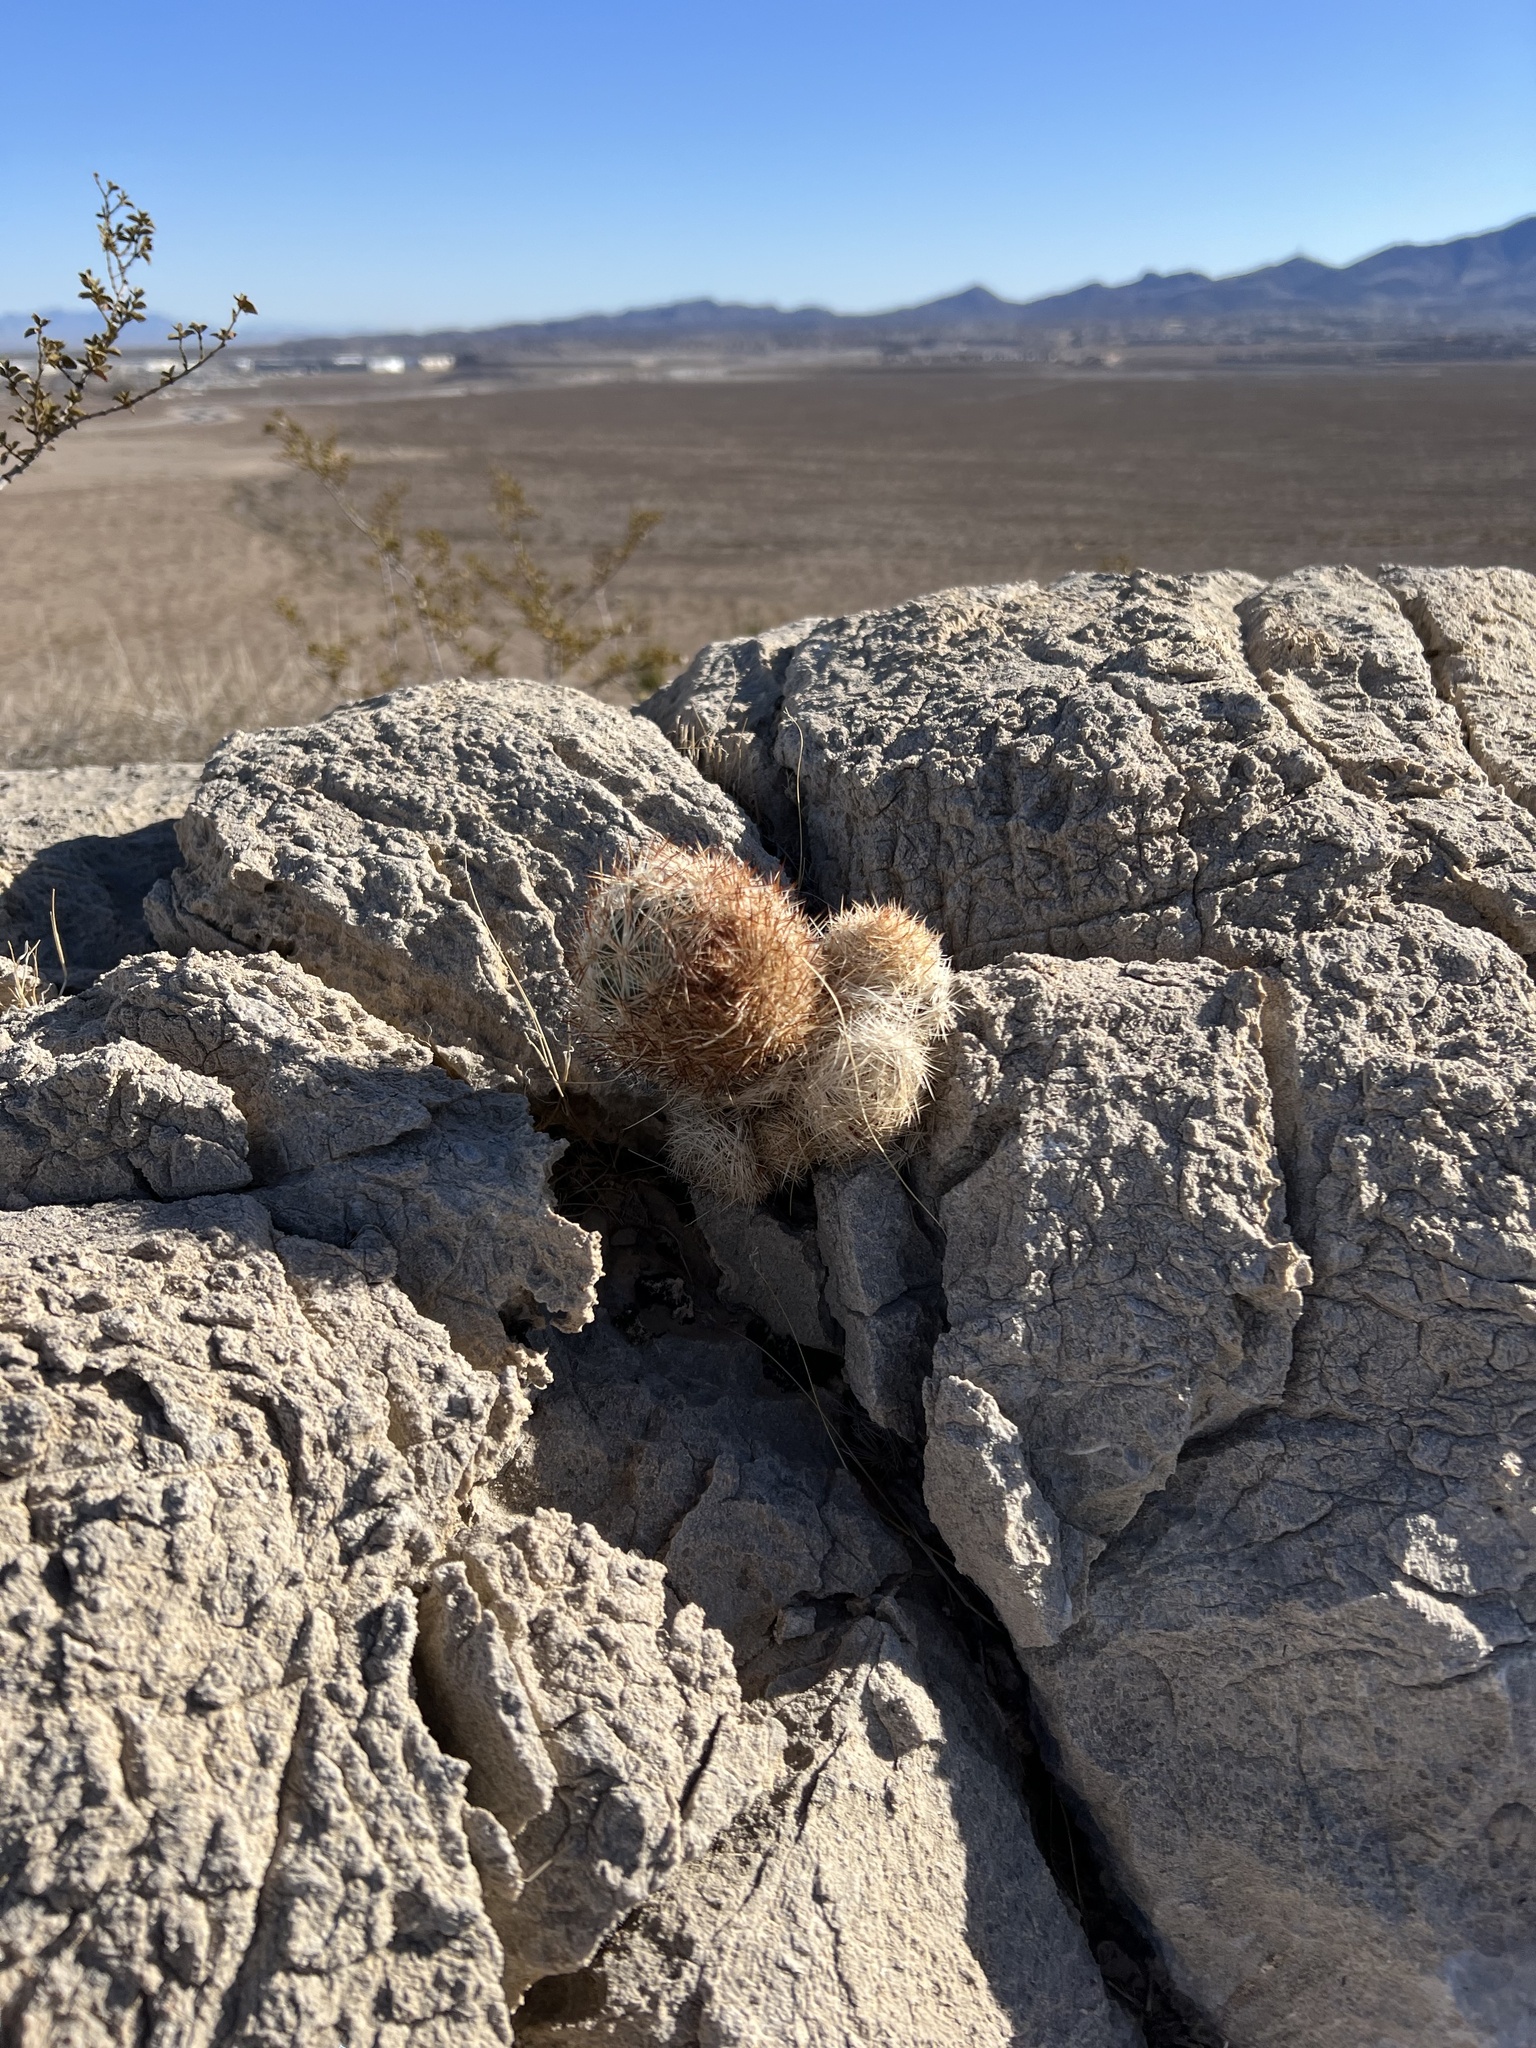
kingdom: Plantae
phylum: Tracheophyta
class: Magnoliopsida
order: Caryophyllales
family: Cactaceae
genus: Pelecyphora
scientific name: Pelecyphora dasyacantha
